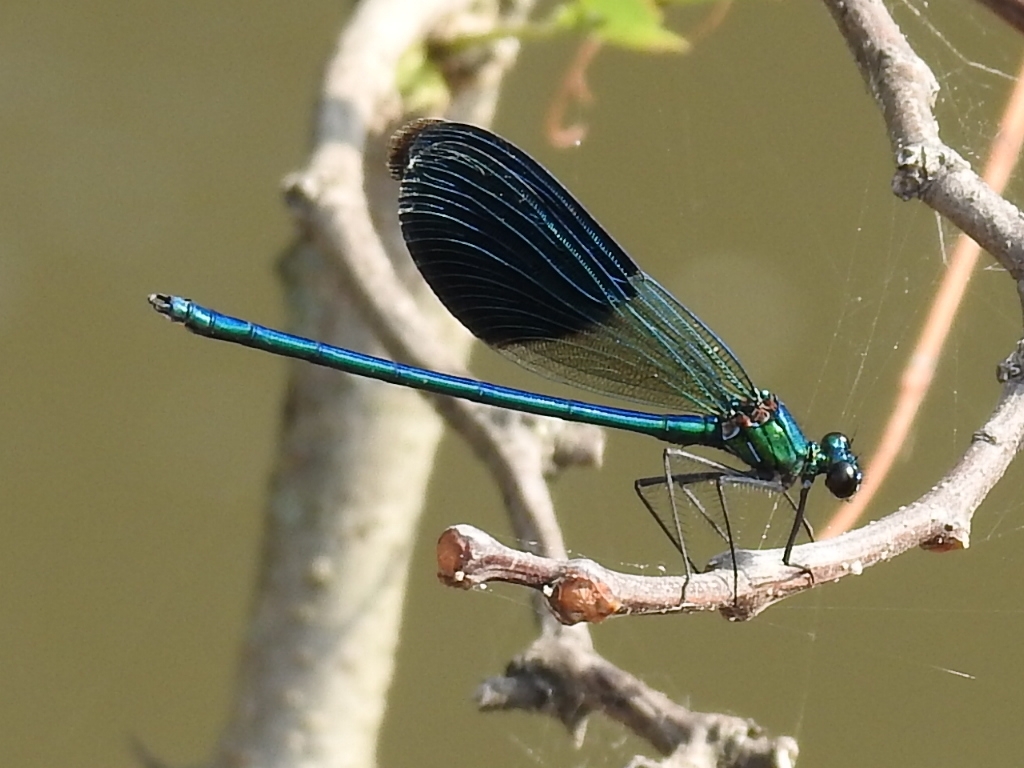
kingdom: Animalia
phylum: Arthropoda
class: Insecta
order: Odonata
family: Calopterygidae
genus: Calopteryx
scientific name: Calopteryx splendens
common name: Banded demoiselle
